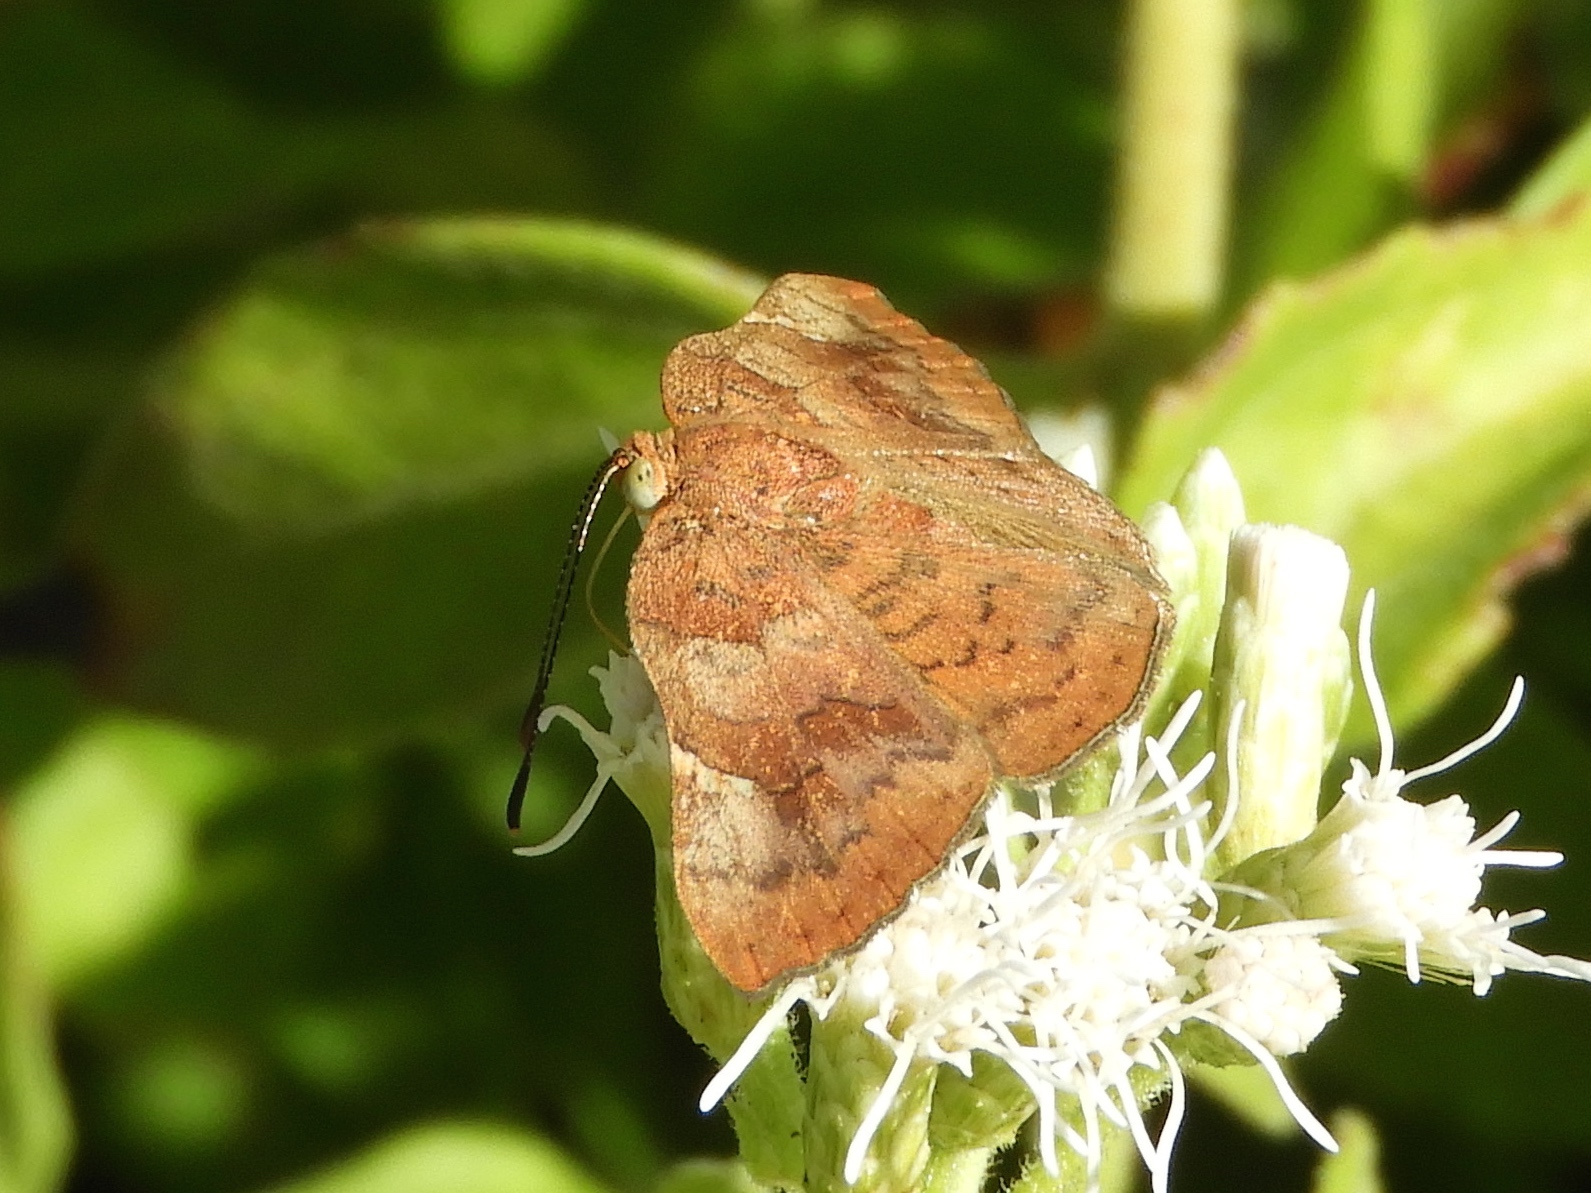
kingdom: Animalia
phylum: Arthropoda
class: Insecta
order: Lepidoptera
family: Riodinidae
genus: Curvie
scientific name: Curvie emesia
